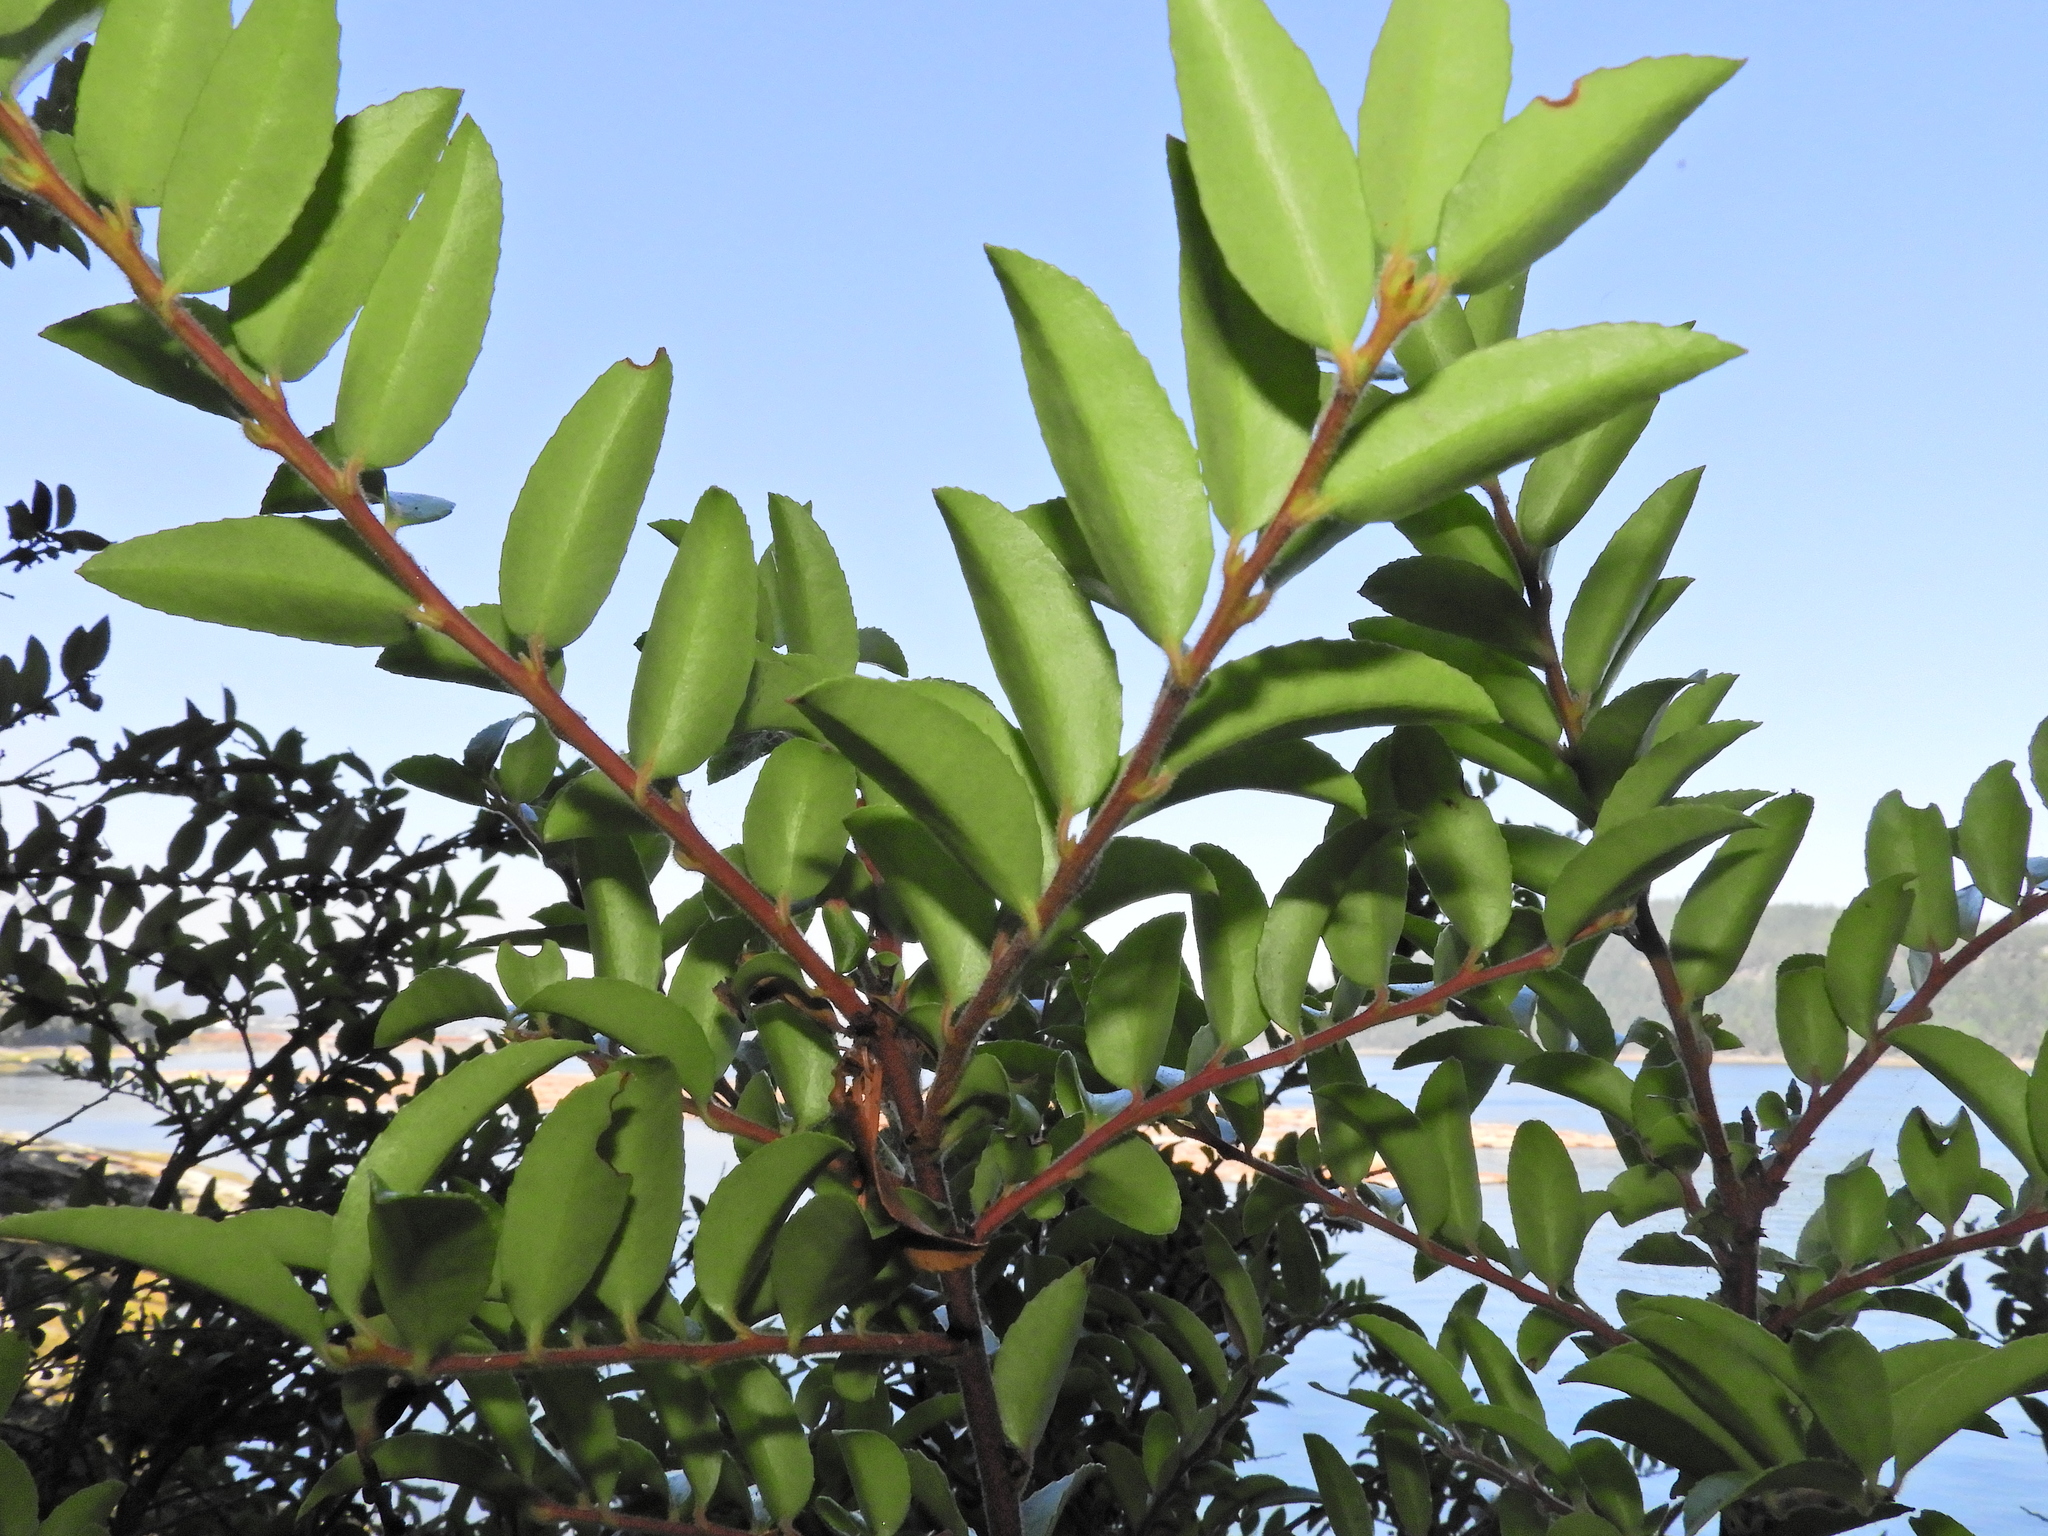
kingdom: Plantae
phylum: Tracheophyta
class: Magnoliopsida
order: Ericales
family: Ericaceae
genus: Vaccinium
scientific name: Vaccinium ovatum
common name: California-huckleberry
